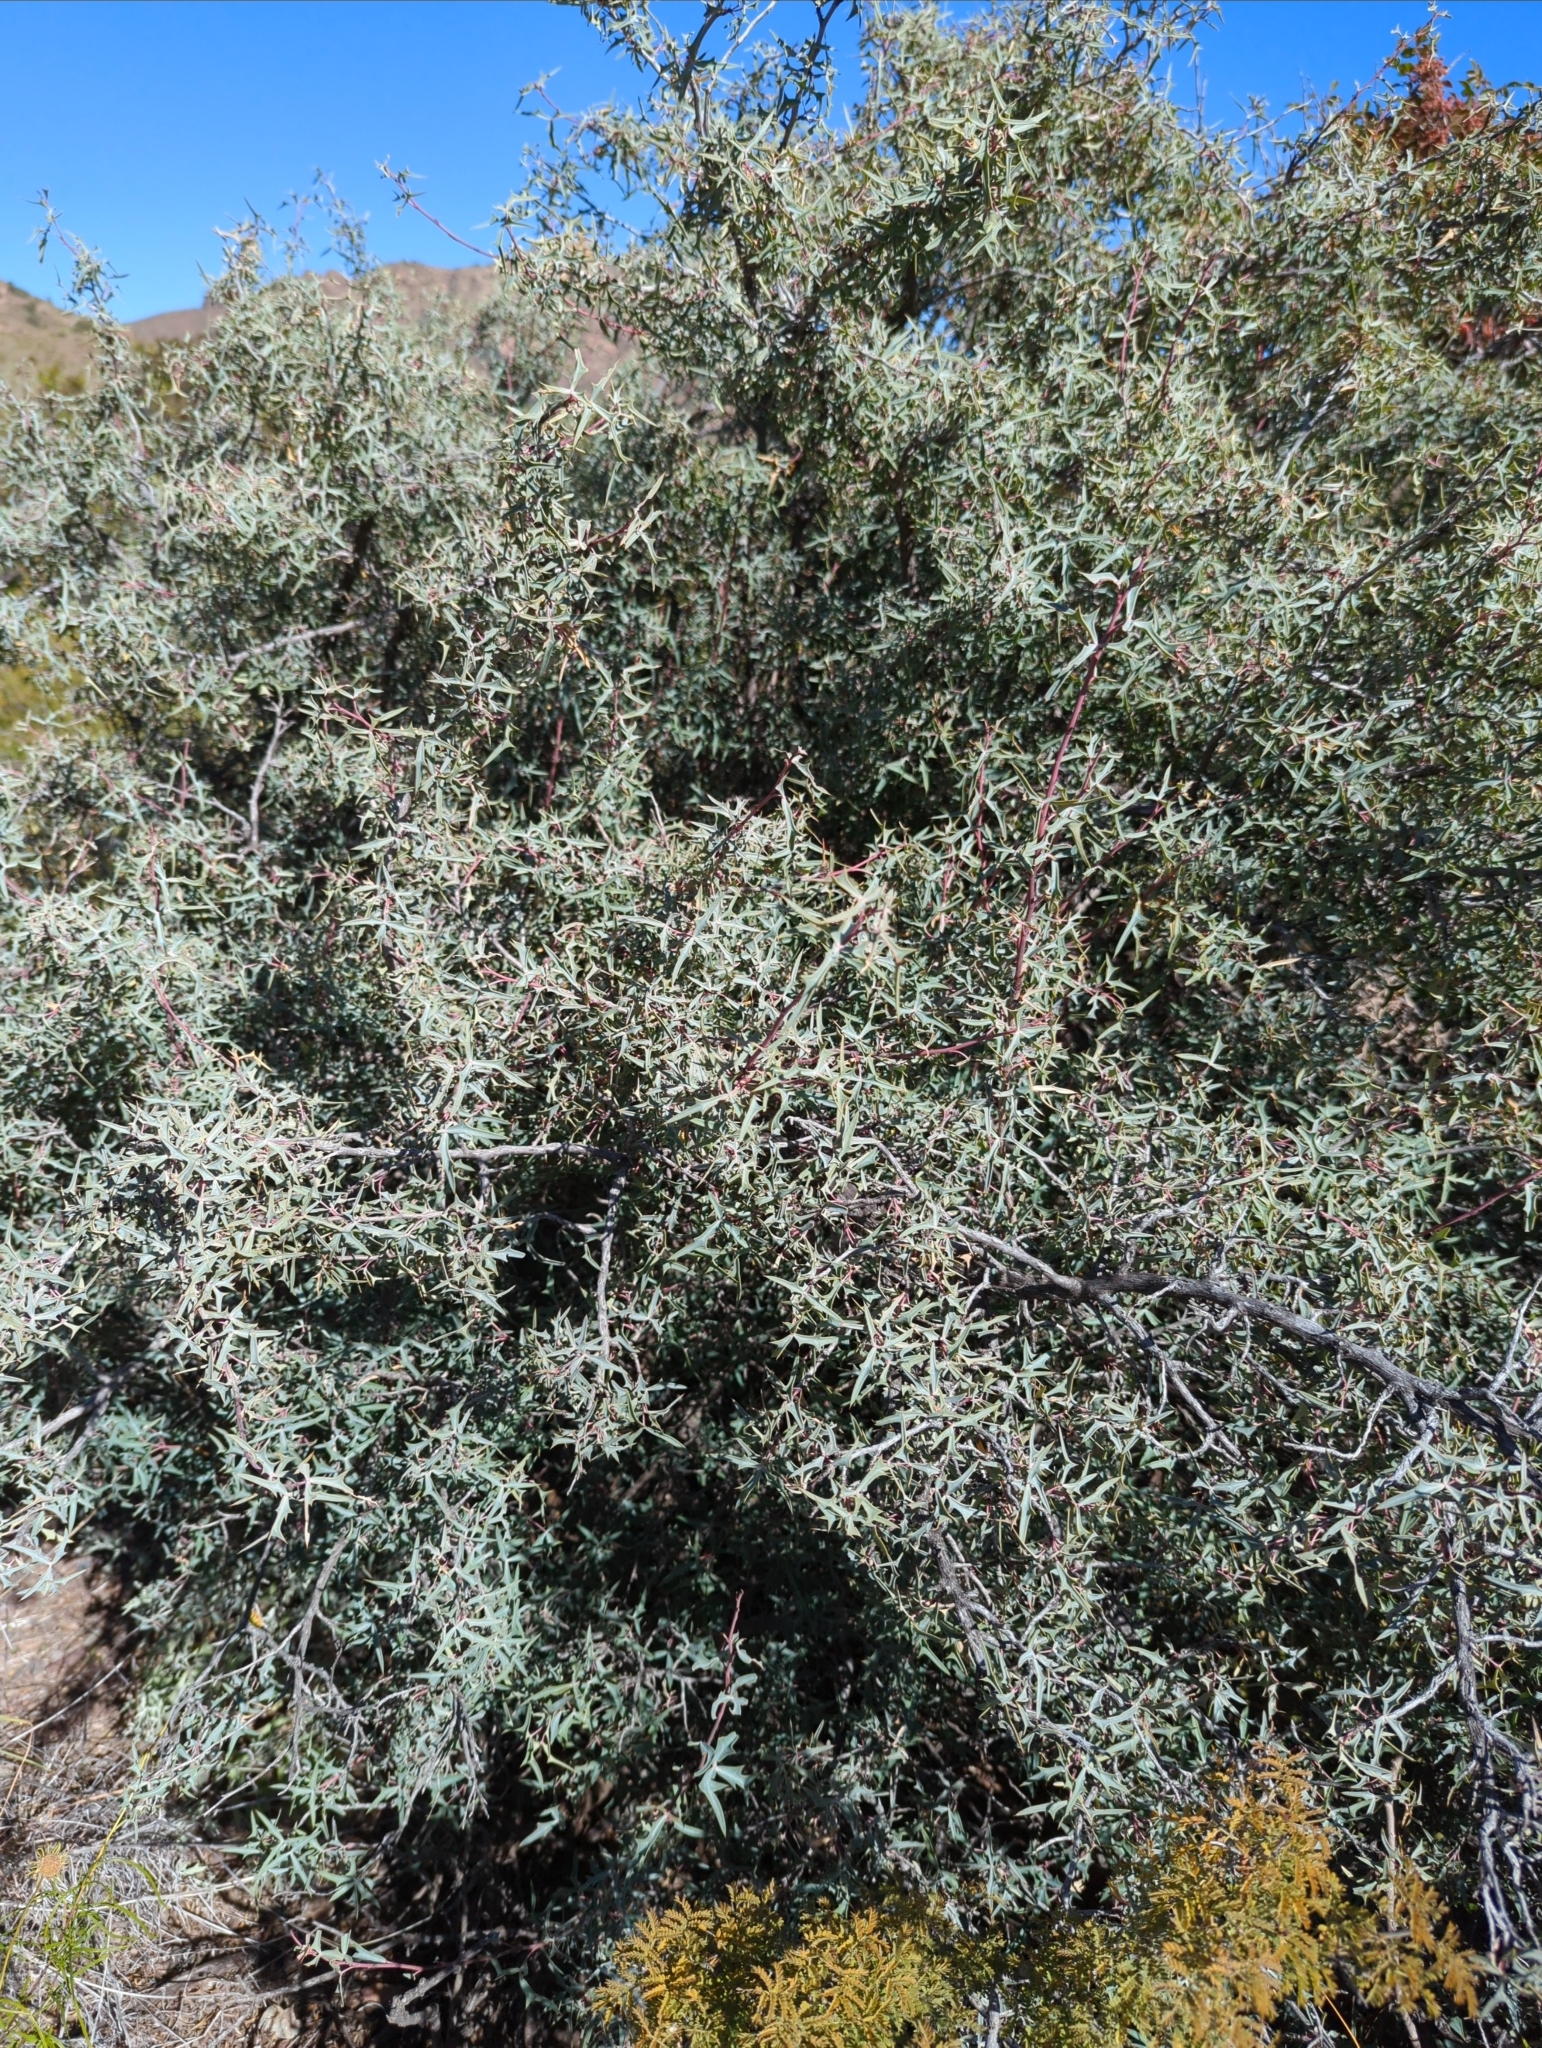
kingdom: Plantae
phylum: Tracheophyta
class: Magnoliopsida
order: Ranunculales
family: Berberidaceae
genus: Alloberberis
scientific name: Alloberberis trifoliolata
